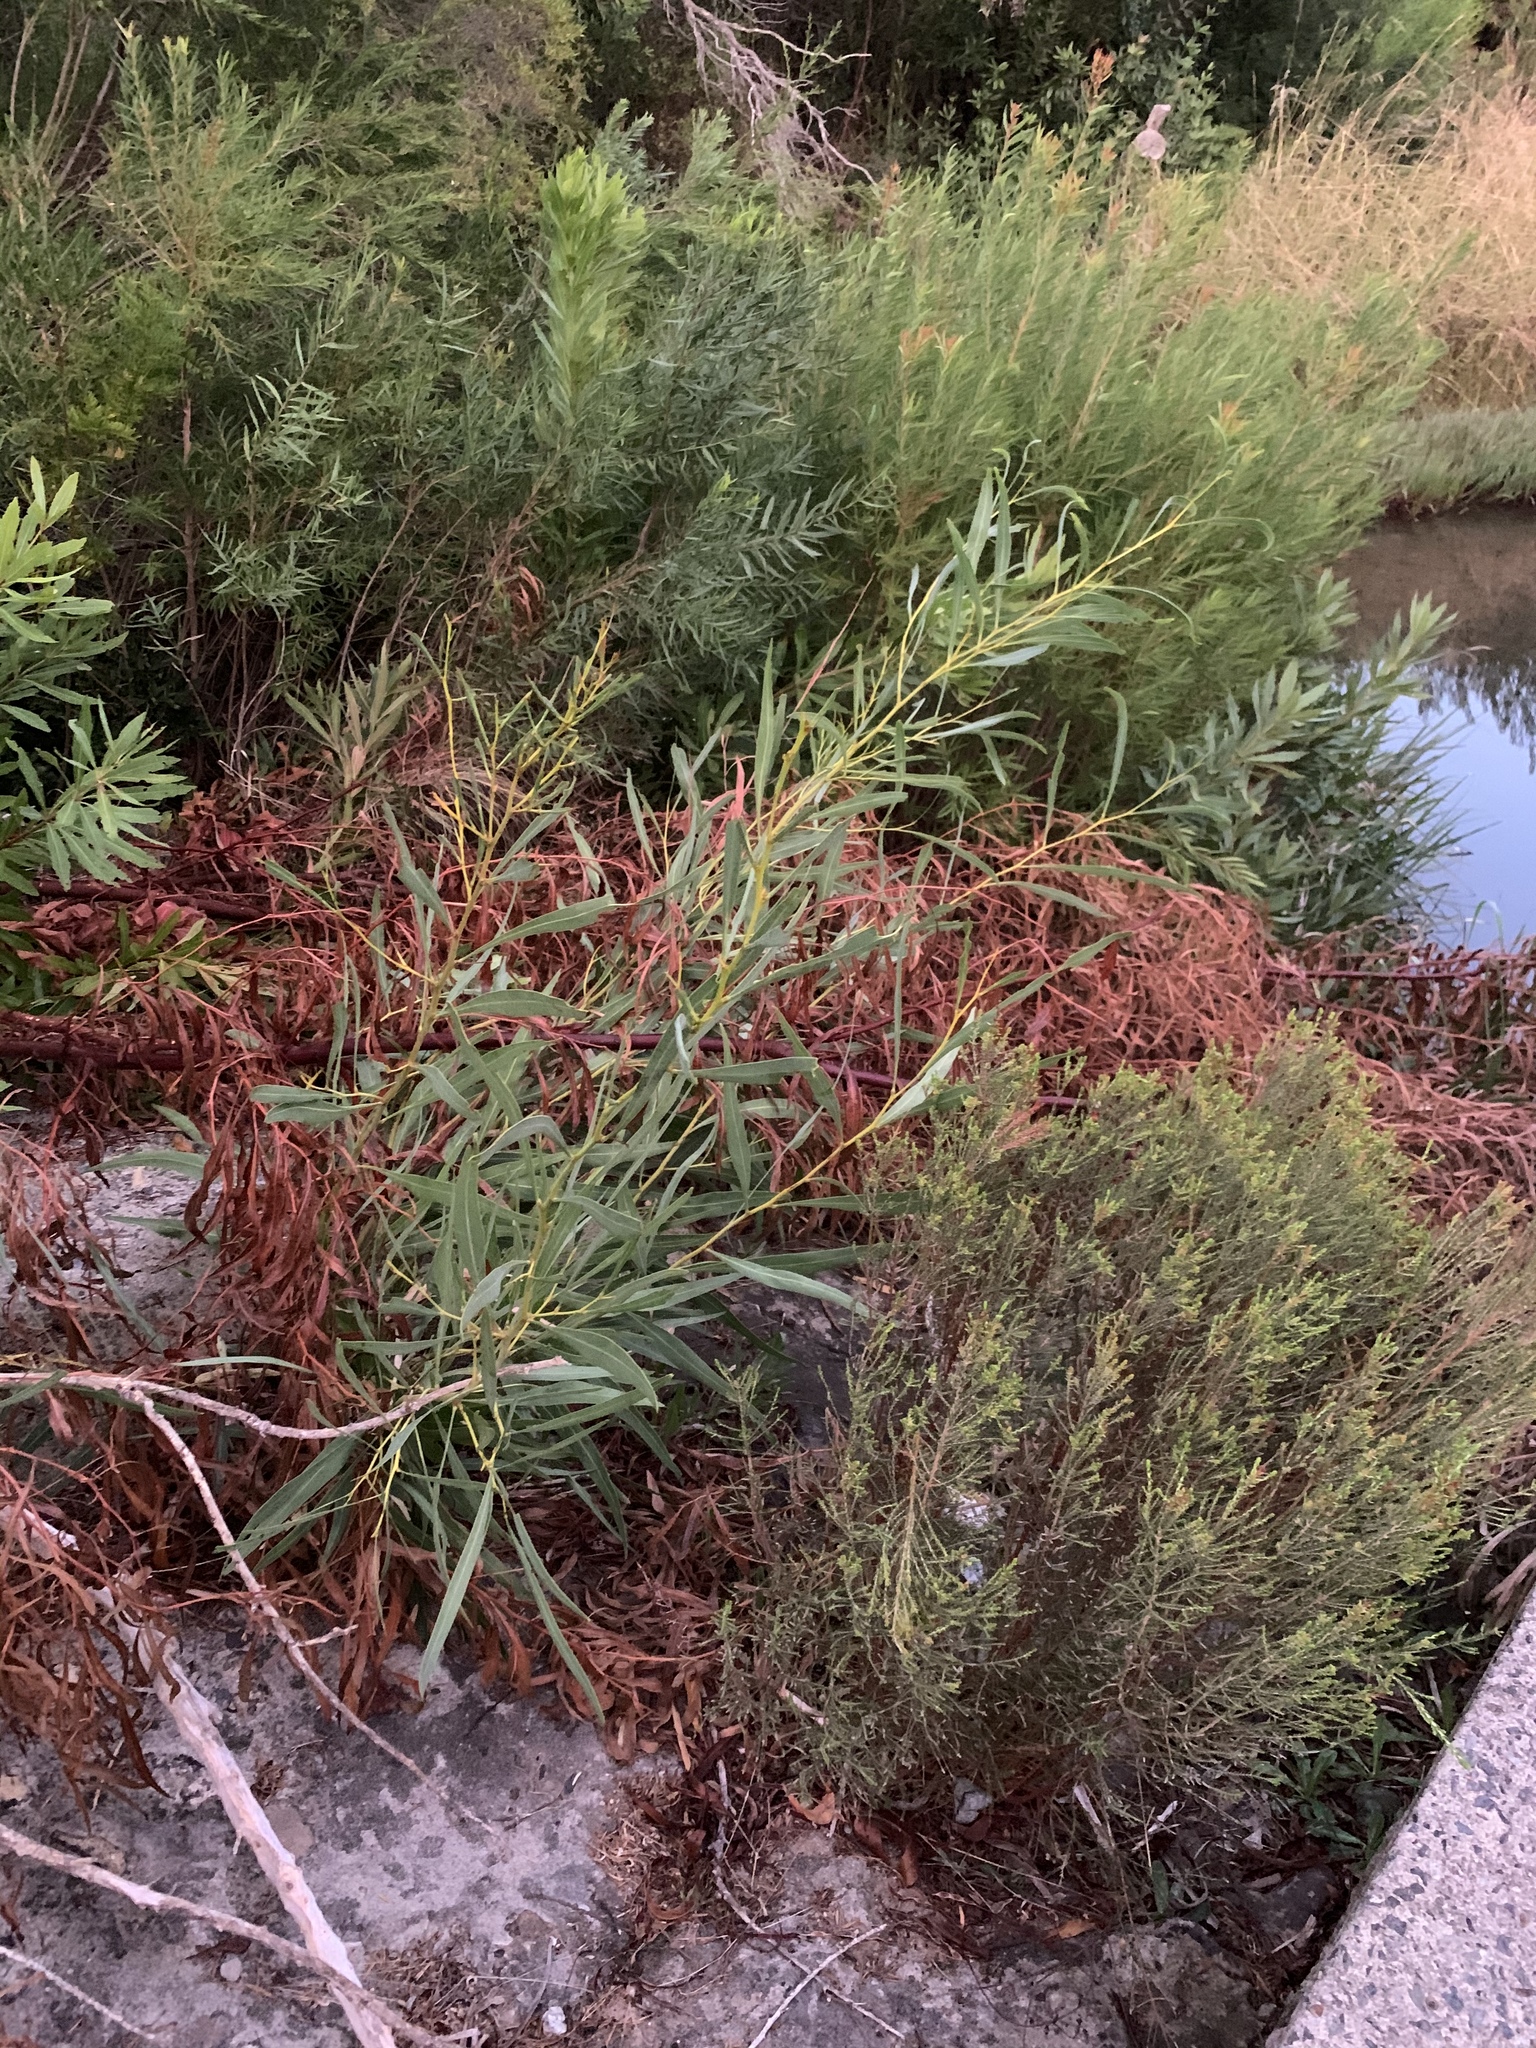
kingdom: Plantae
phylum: Tracheophyta
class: Magnoliopsida
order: Fabales
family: Fabaceae
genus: Acacia
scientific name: Acacia saligna
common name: Orange wattle
